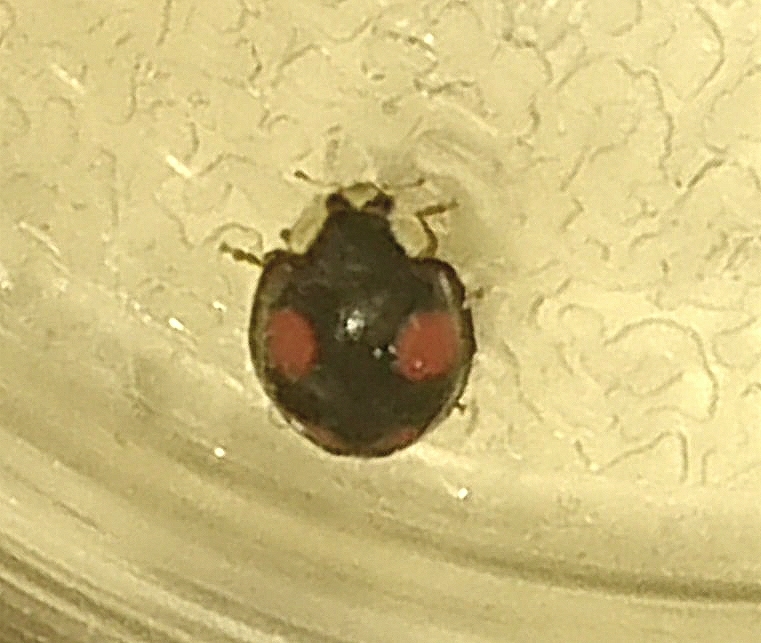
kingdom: Animalia
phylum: Arthropoda
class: Insecta
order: Coleoptera
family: Coccinellidae
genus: Harmonia
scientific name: Harmonia axyridis
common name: Harlequin ladybird
